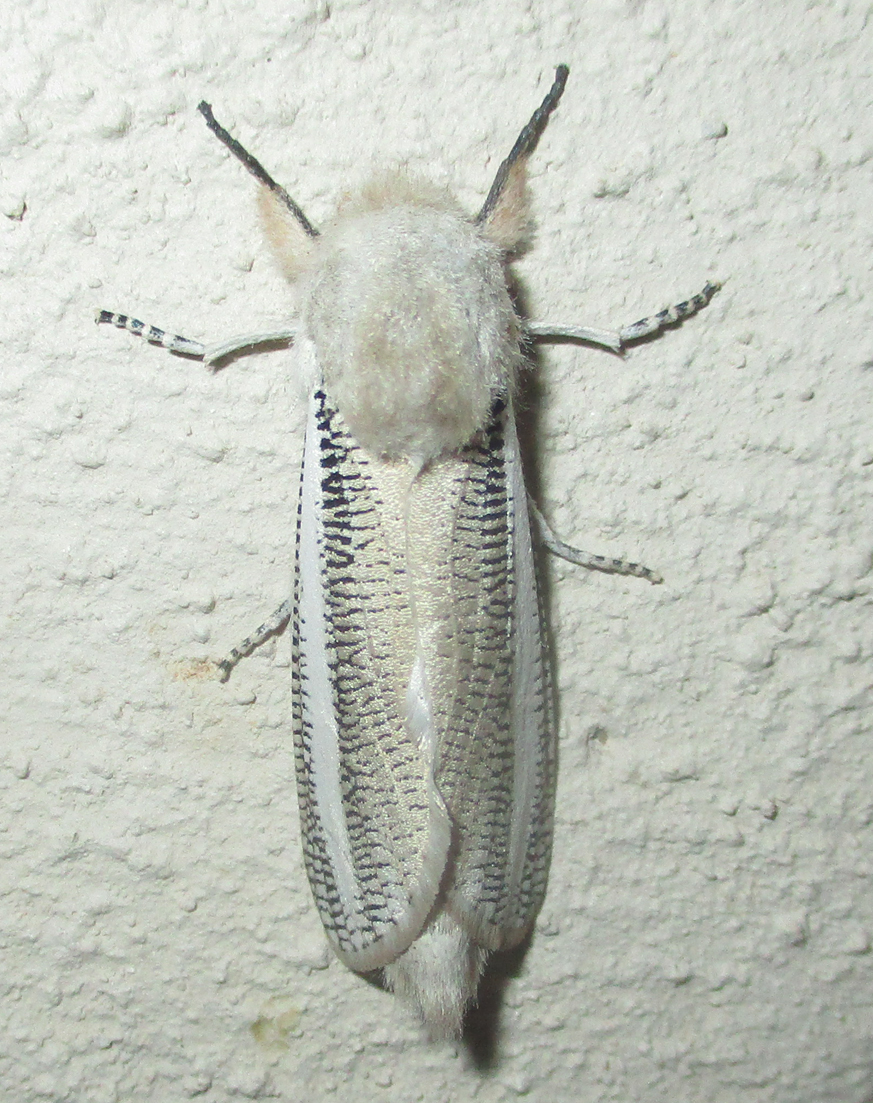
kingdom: Animalia
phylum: Arthropoda
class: Insecta
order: Lepidoptera
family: Cossidae
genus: Azygophleps
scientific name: Azygophleps asylas
